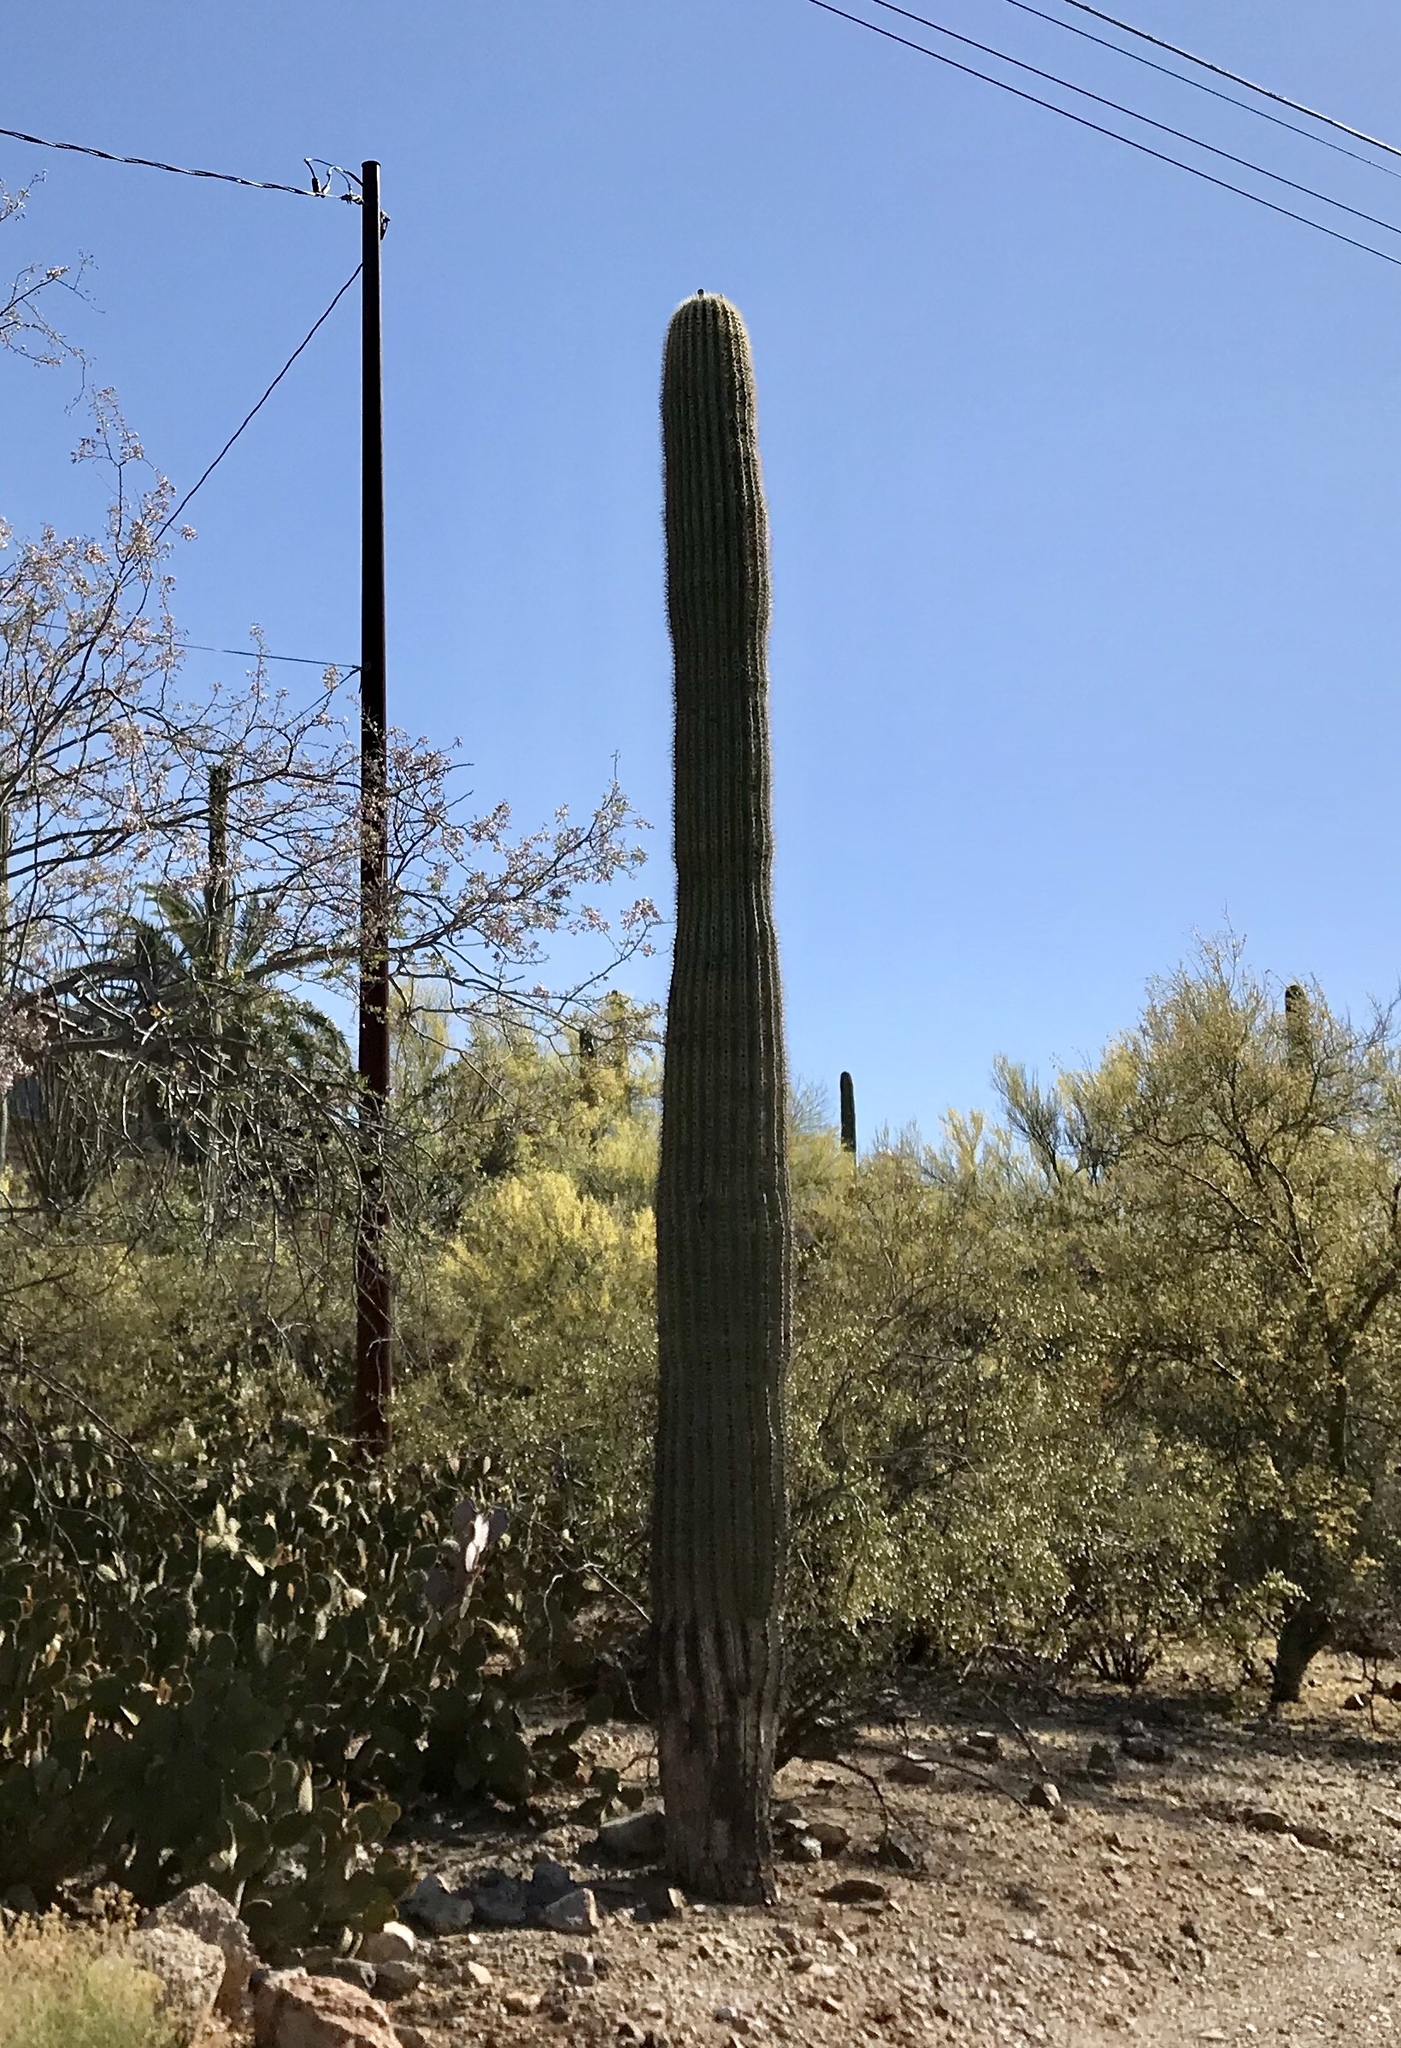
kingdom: Plantae
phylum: Tracheophyta
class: Magnoliopsida
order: Caryophyllales
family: Cactaceae
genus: Carnegiea
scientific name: Carnegiea gigantea
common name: Saguaro
